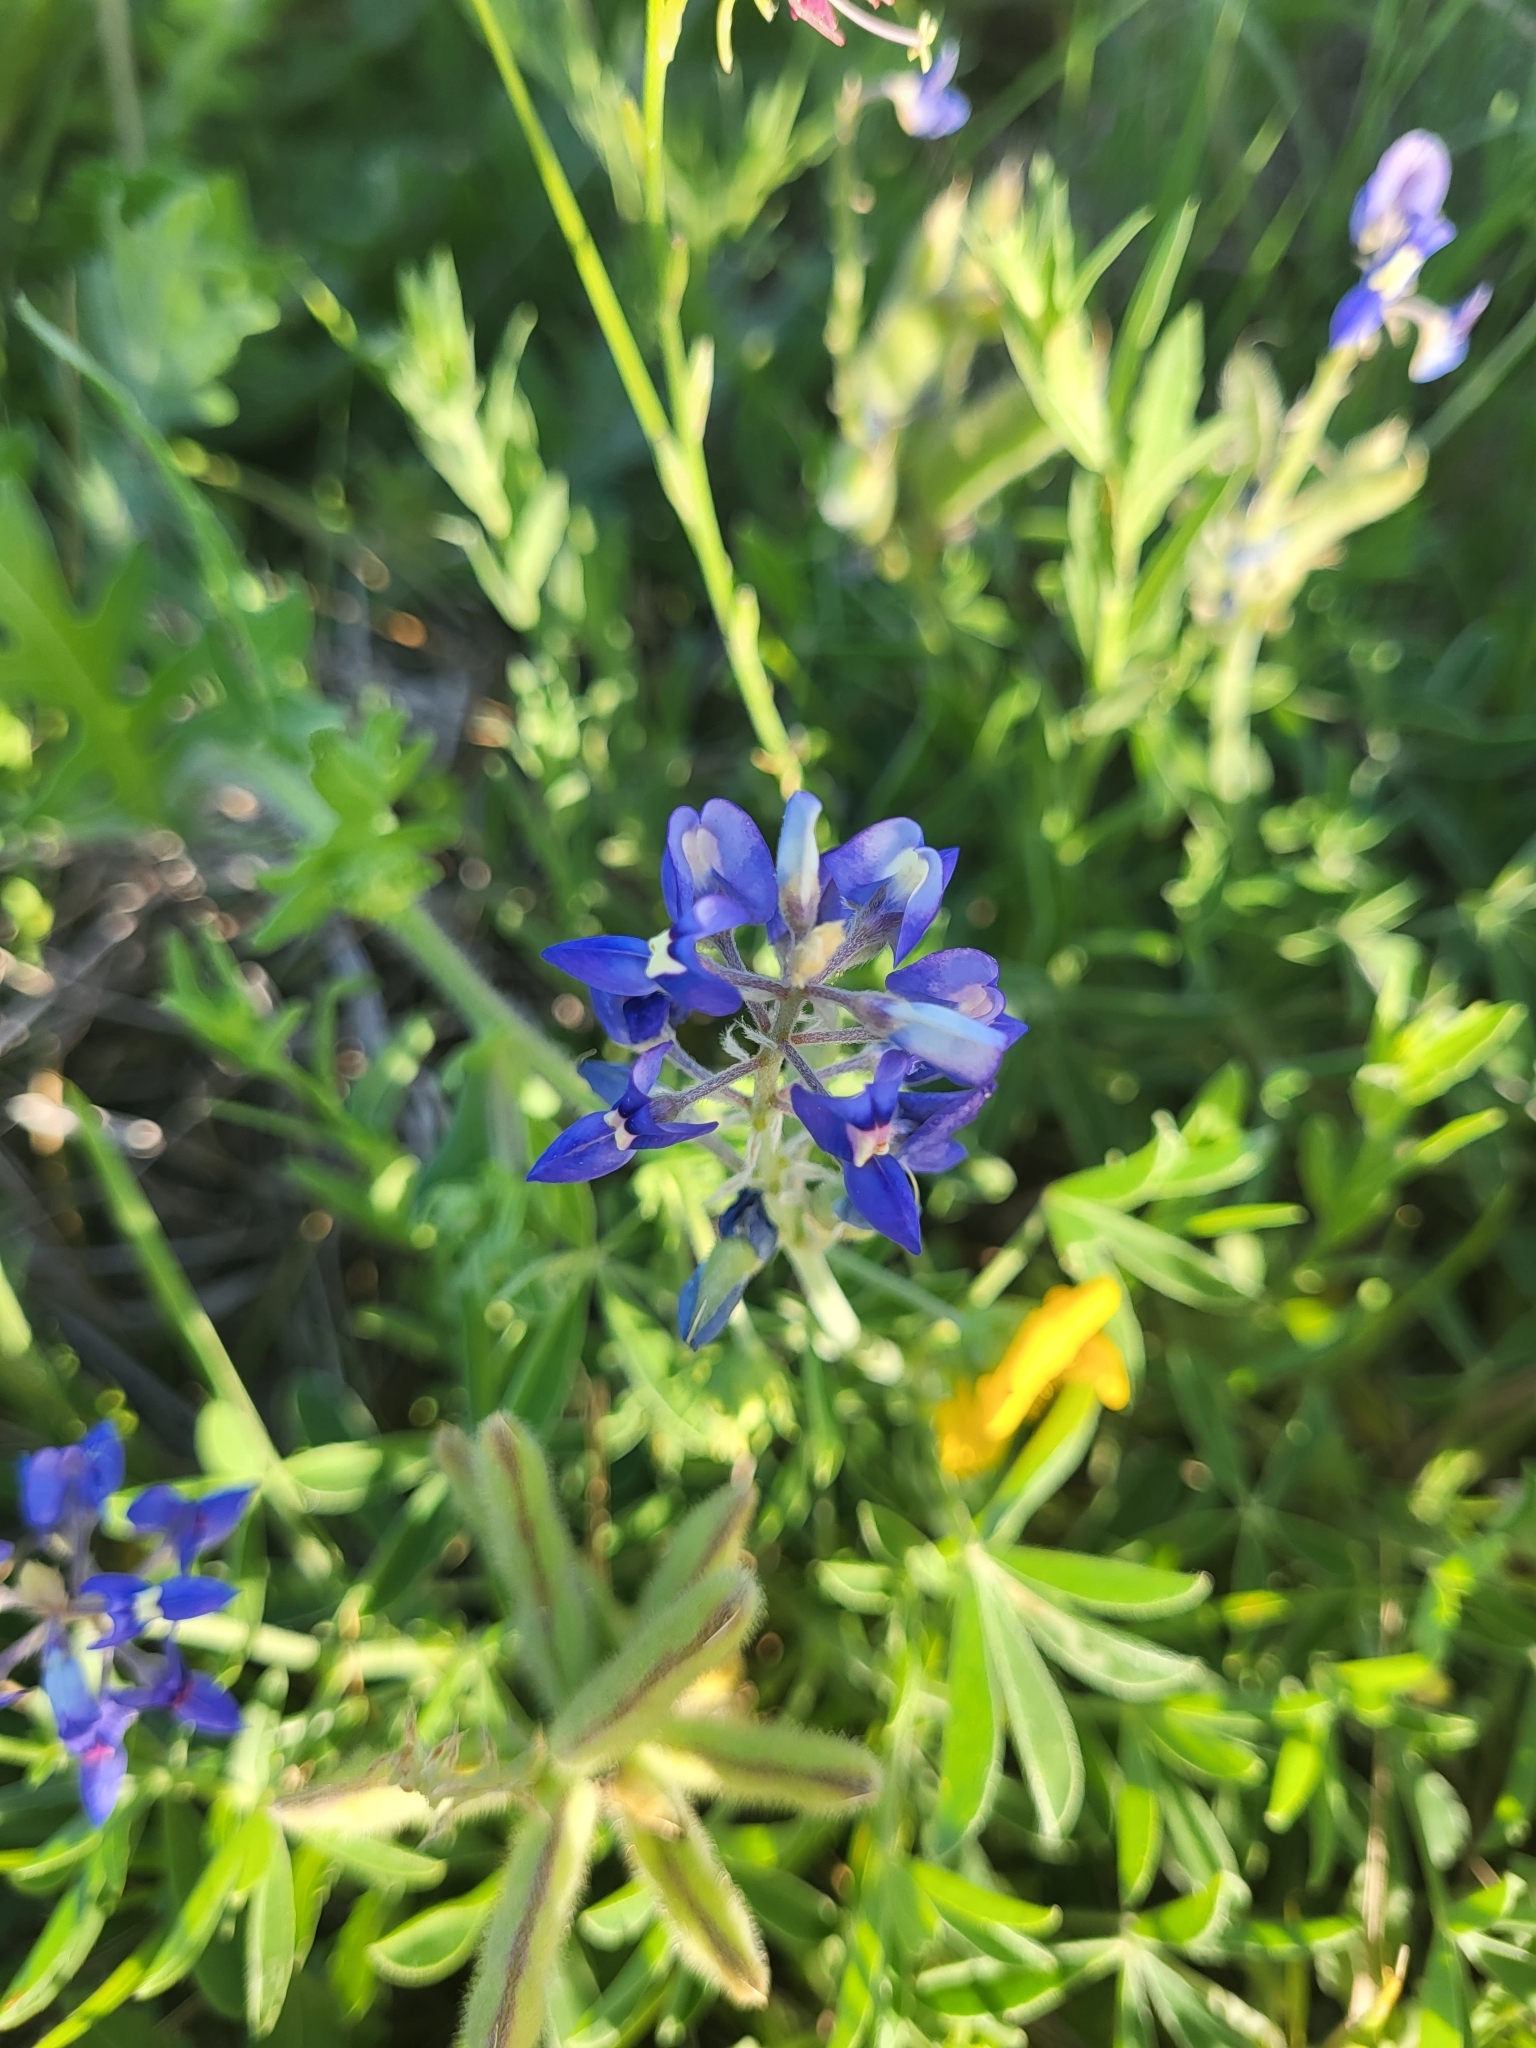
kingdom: Plantae
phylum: Tracheophyta
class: Magnoliopsida
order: Fabales
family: Fabaceae
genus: Lupinus
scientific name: Lupinus texensis
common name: Texas bluebonnet
